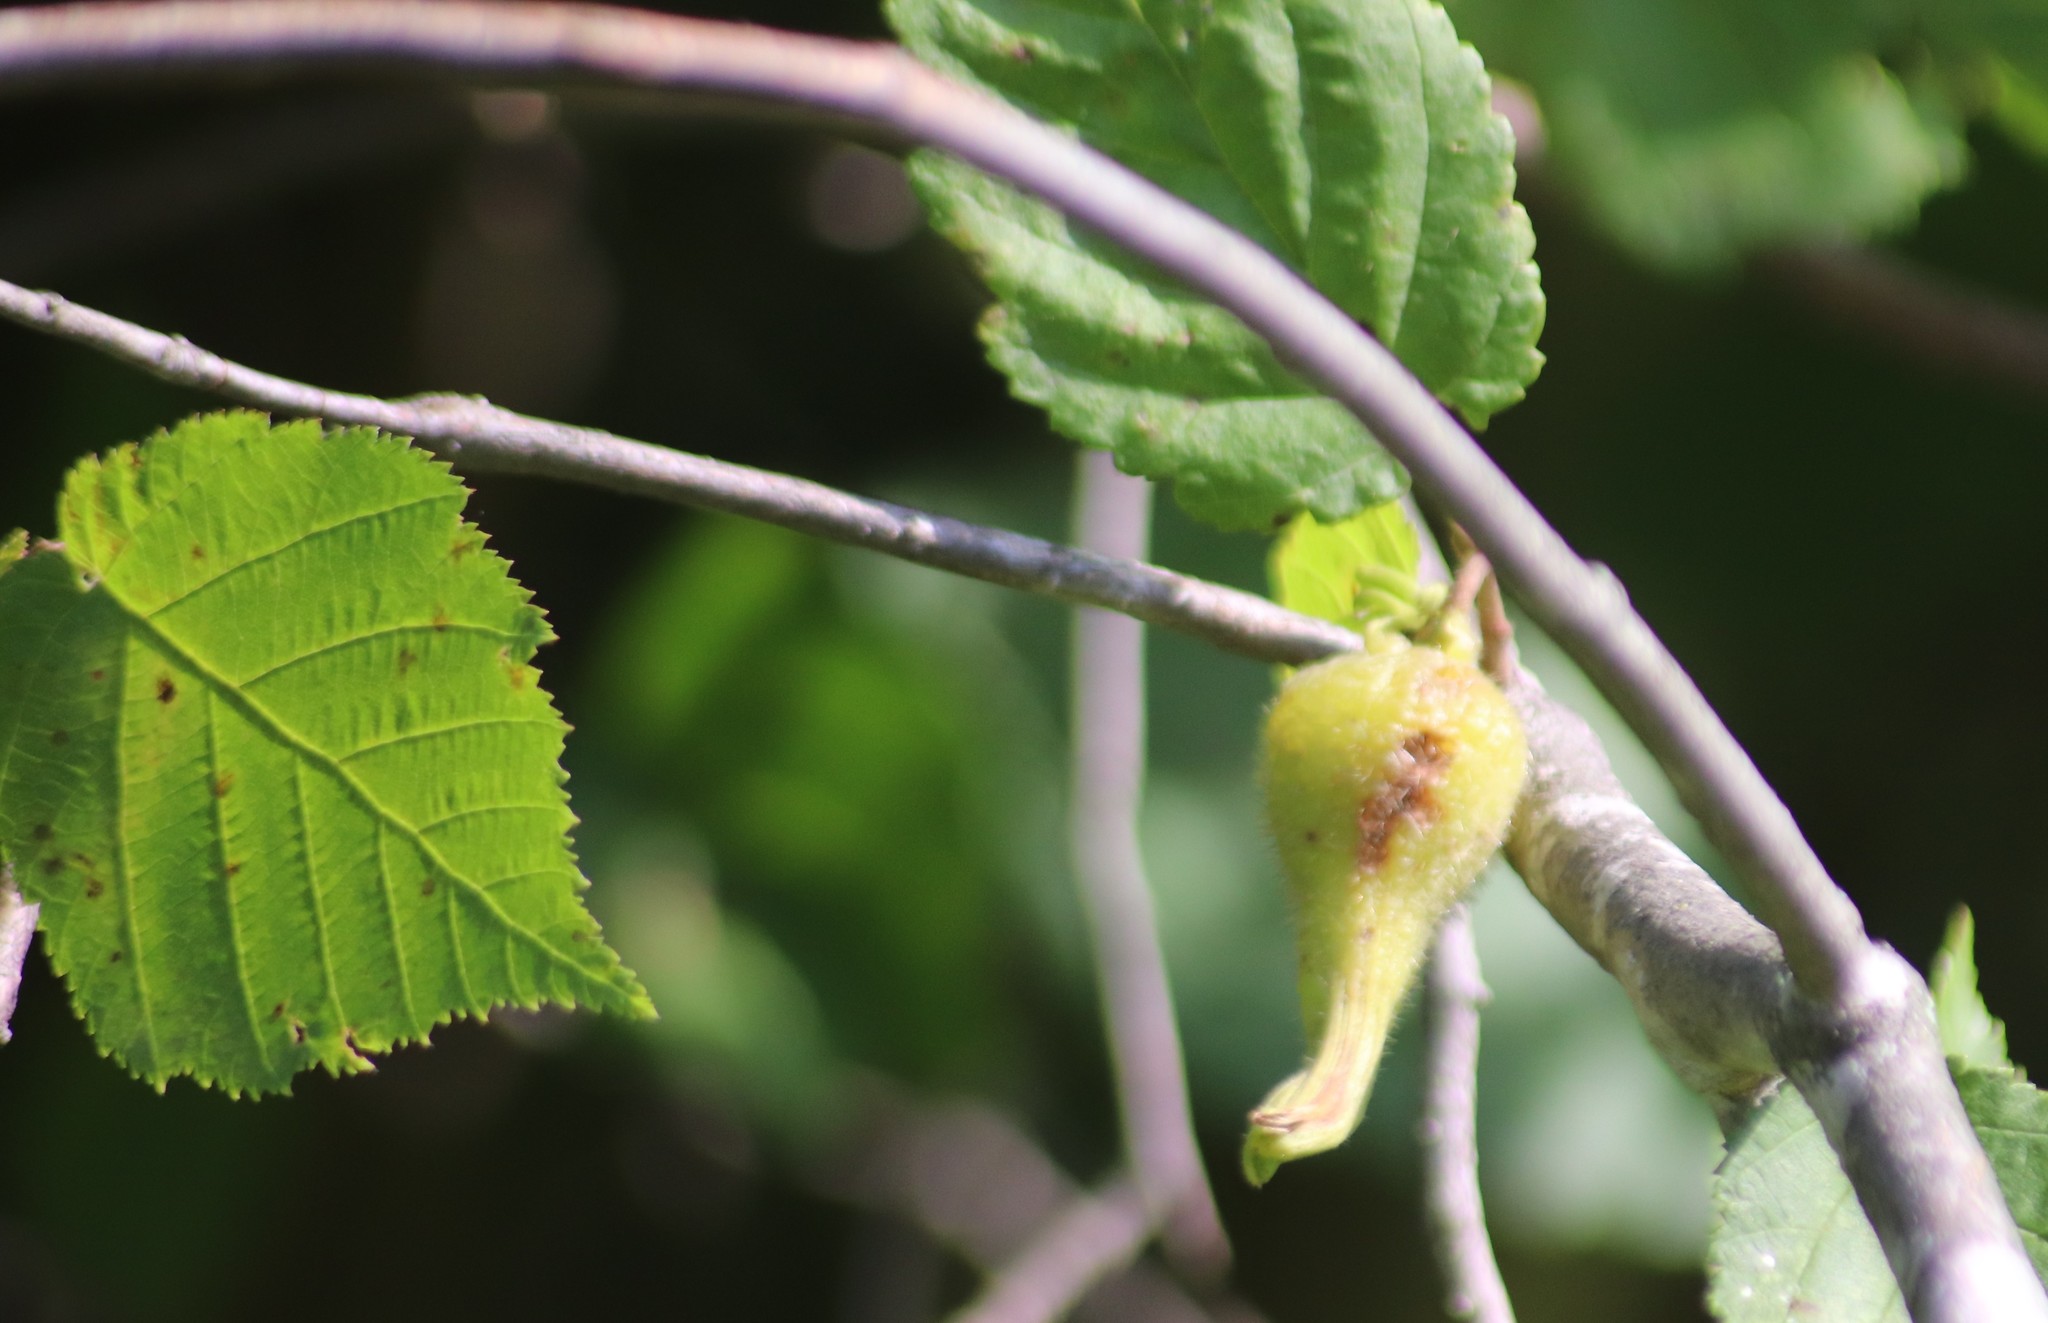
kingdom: Plantae
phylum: Tracheophyta
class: Magnoliopsida
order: Fagales
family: Betulaceae
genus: Corylus
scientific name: Corylus cornuta
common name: Beaked hazel
